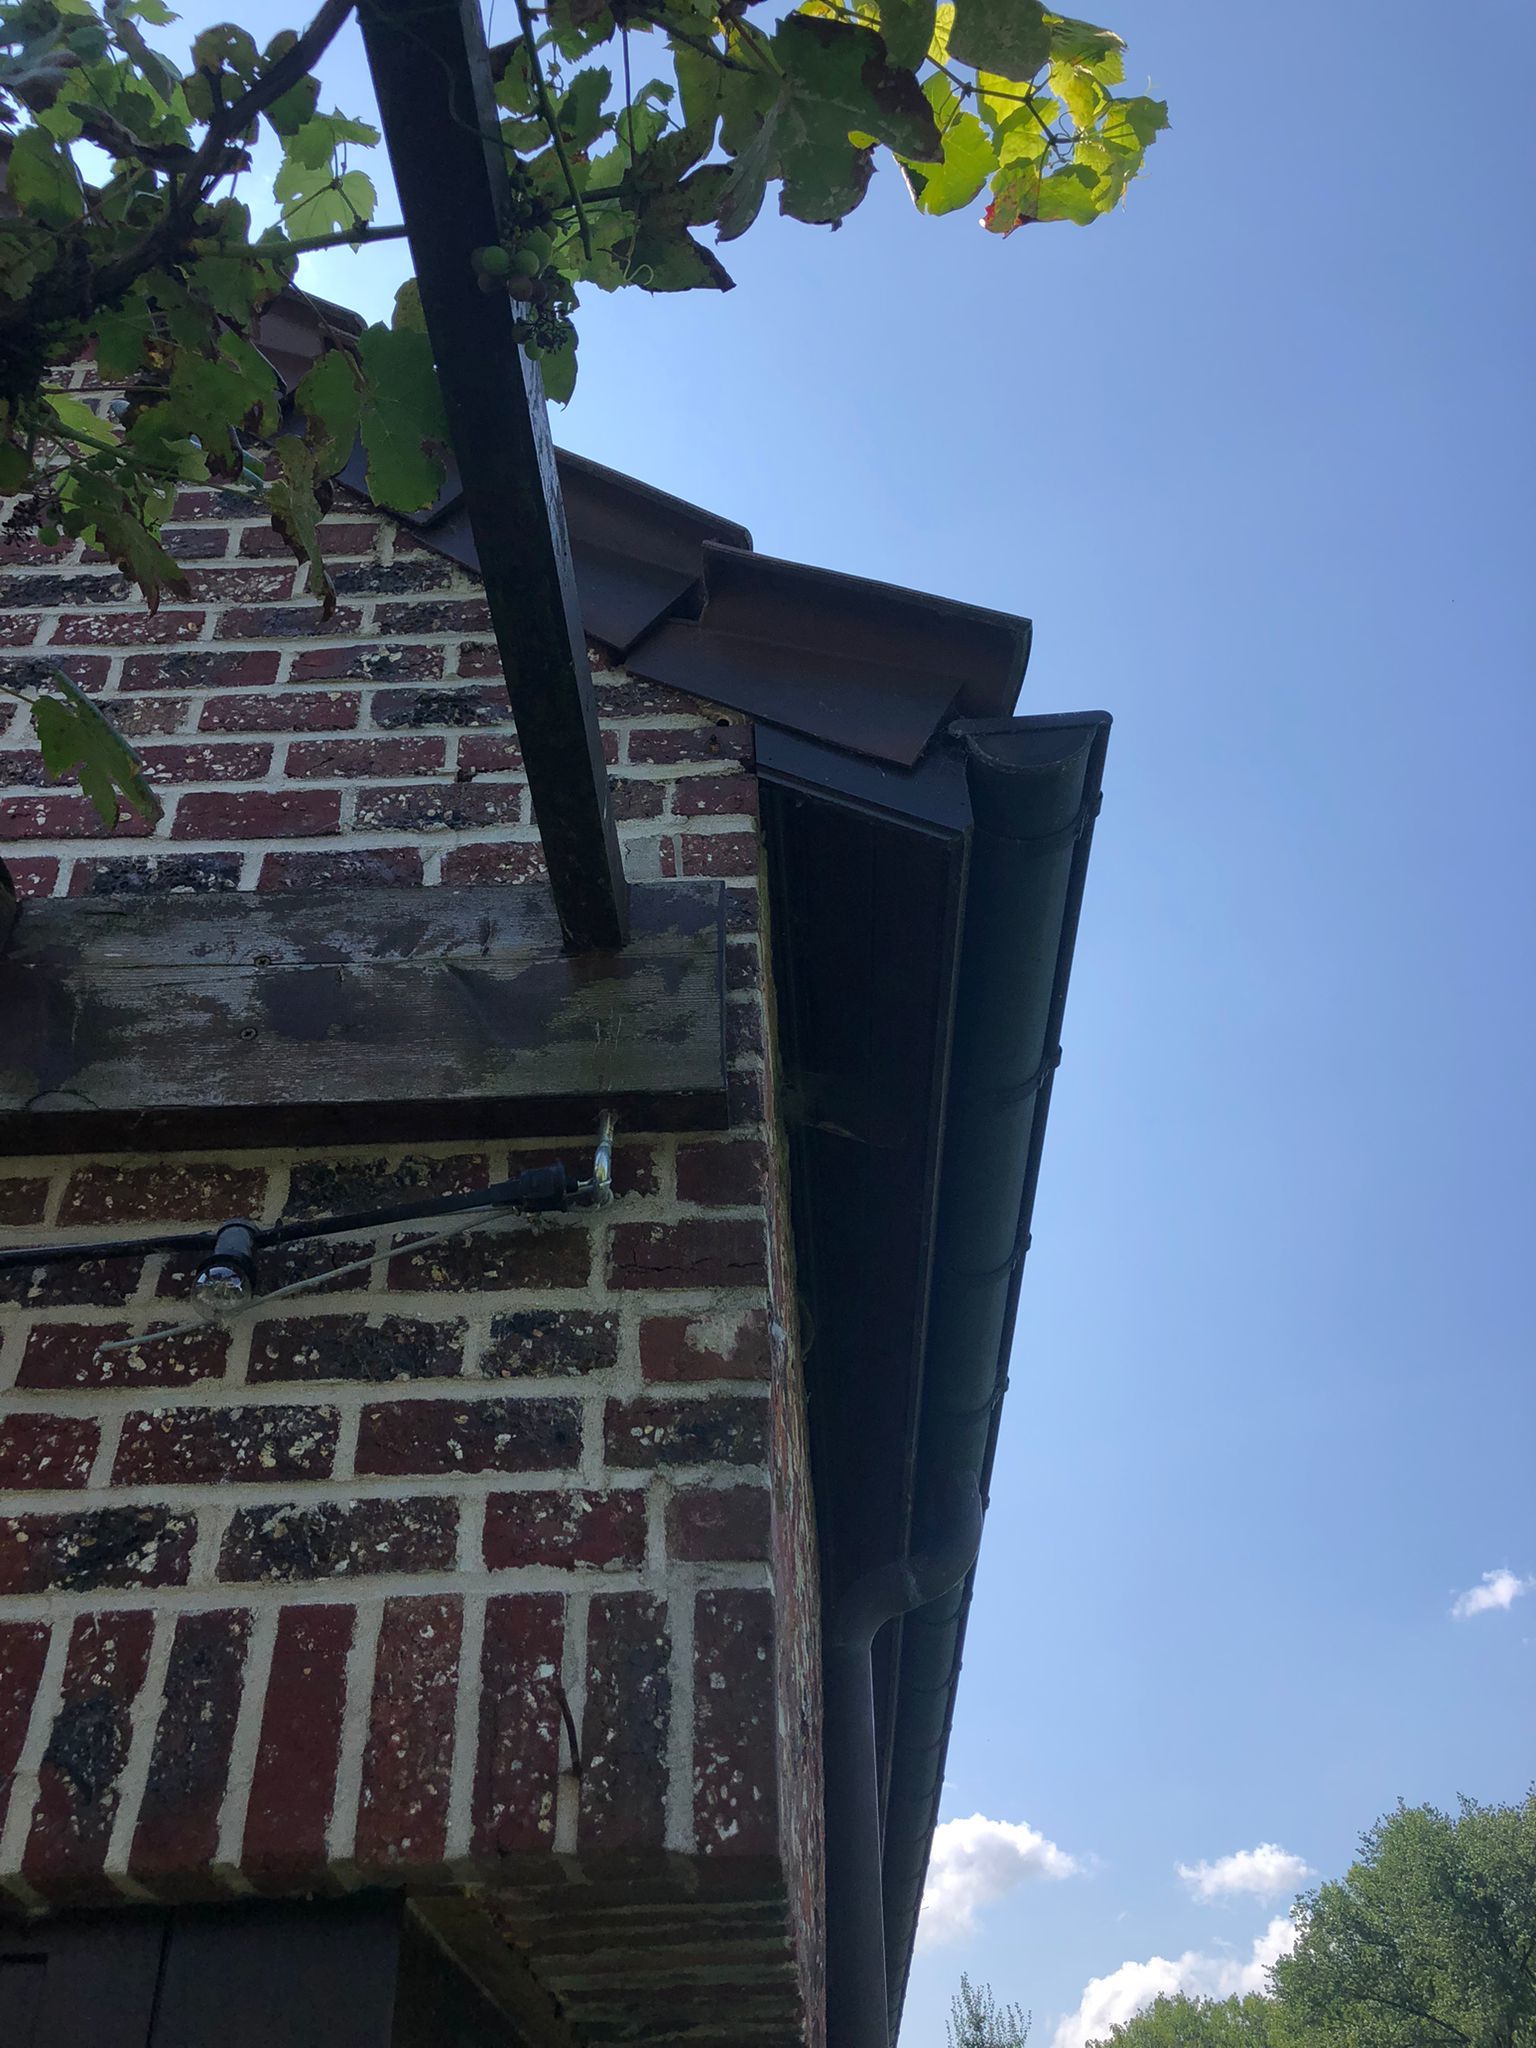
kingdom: Animalia
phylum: Arthropoda
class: Insecta
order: Hymenoptera
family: Vespidae
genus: Vespa
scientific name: Vespa crabro
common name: Hornet
